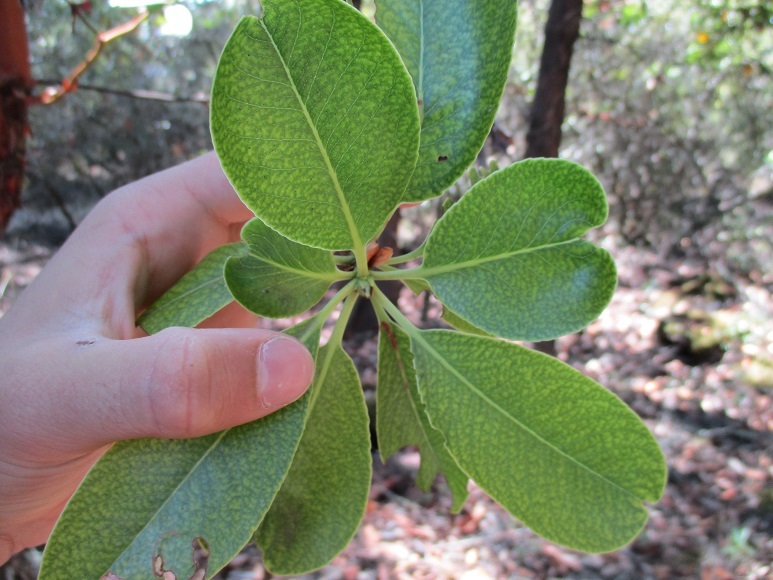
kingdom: Plantae
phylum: Tracheophyta
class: Magnoliopsida
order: Ericales
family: Ericaceae
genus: Arbutus
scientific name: Arbutus menziesii
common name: Pacific madrone
